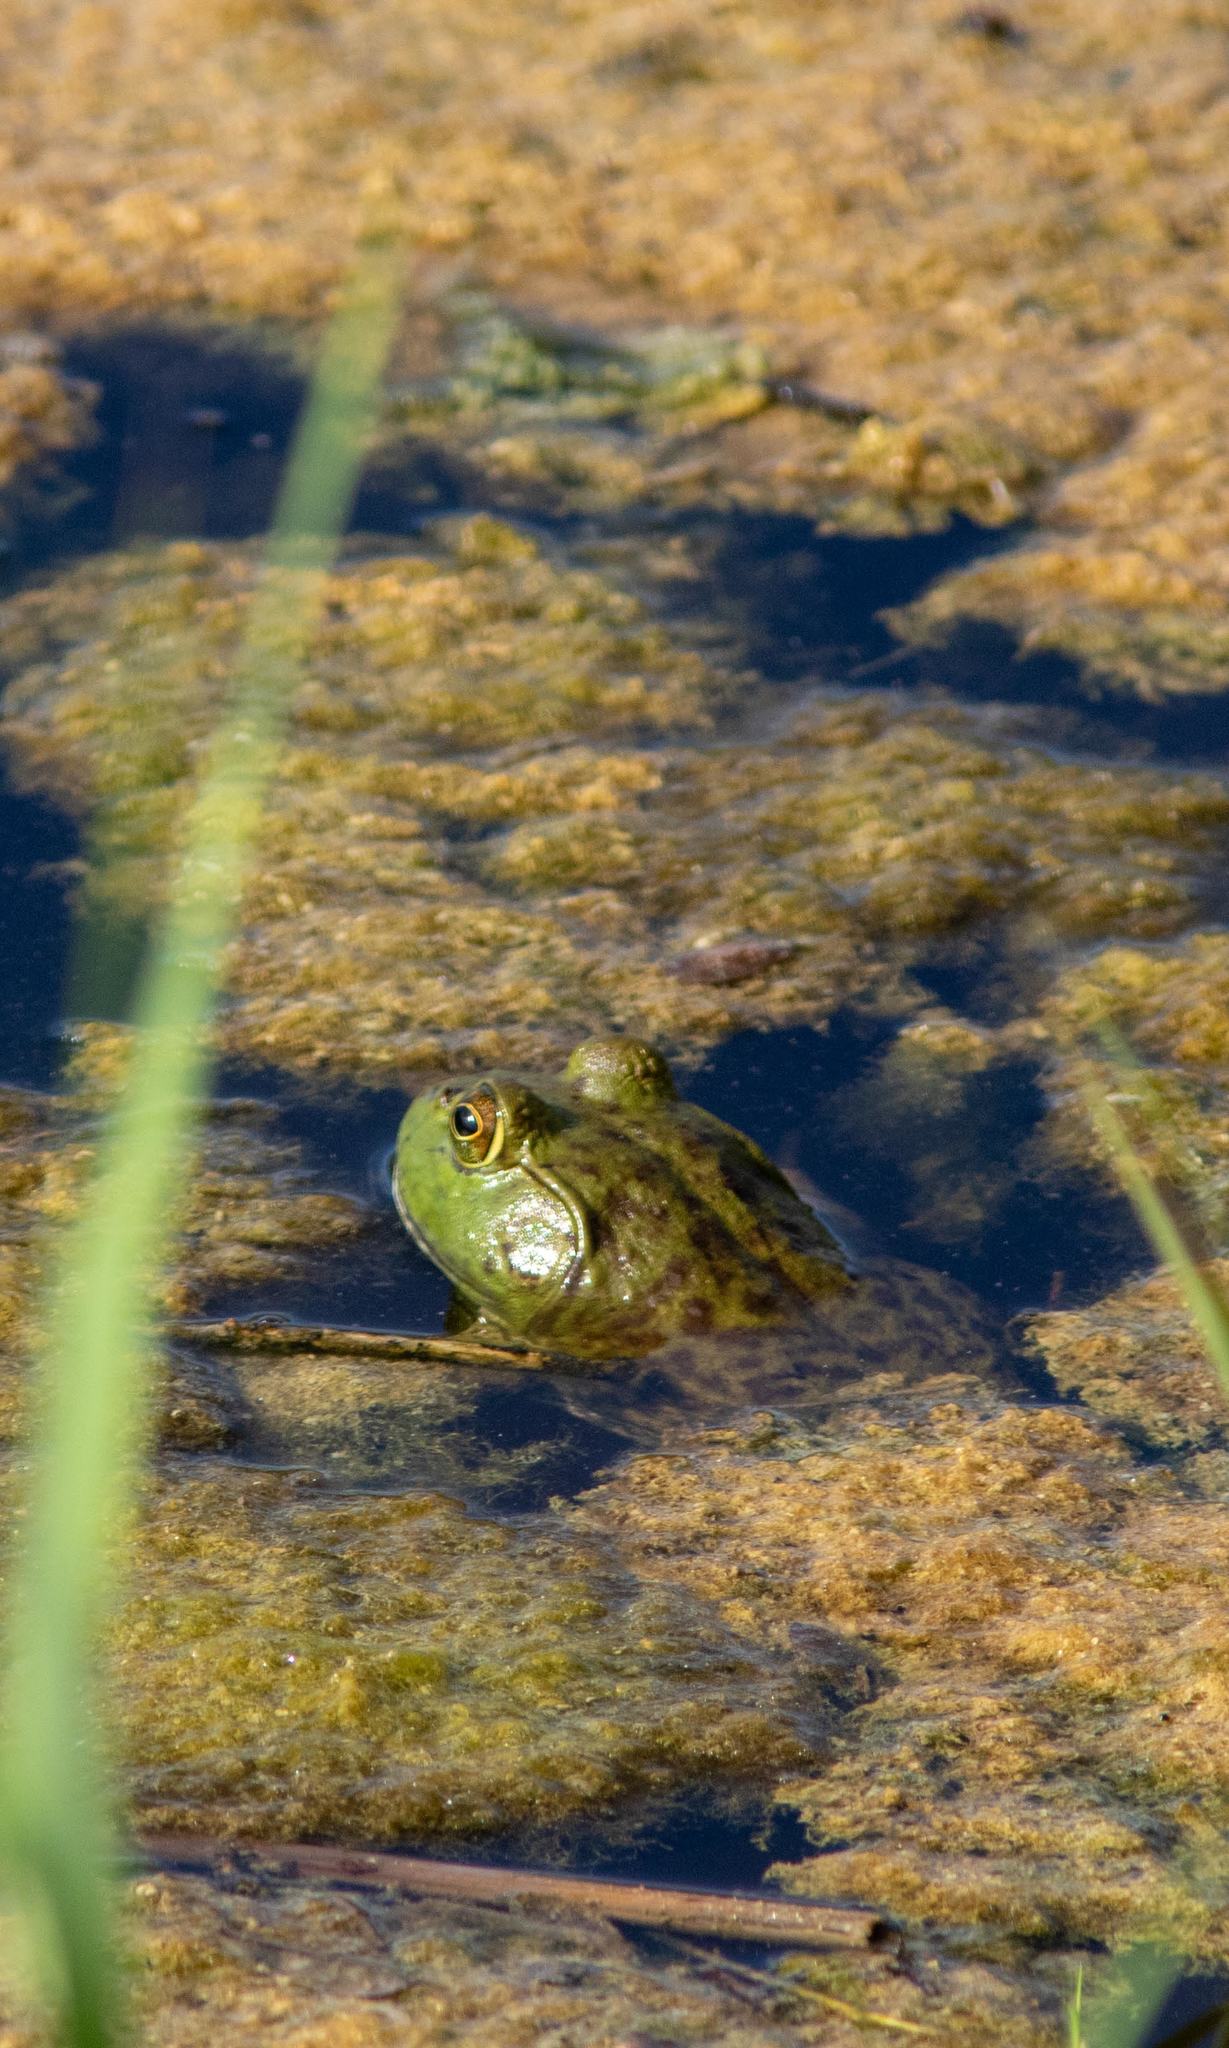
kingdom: Animalia
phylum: Chordata
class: Amphibia
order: Anura
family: Ranidae
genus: Lithobates
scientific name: Lithobates catesbeianus
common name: American bullfrog
